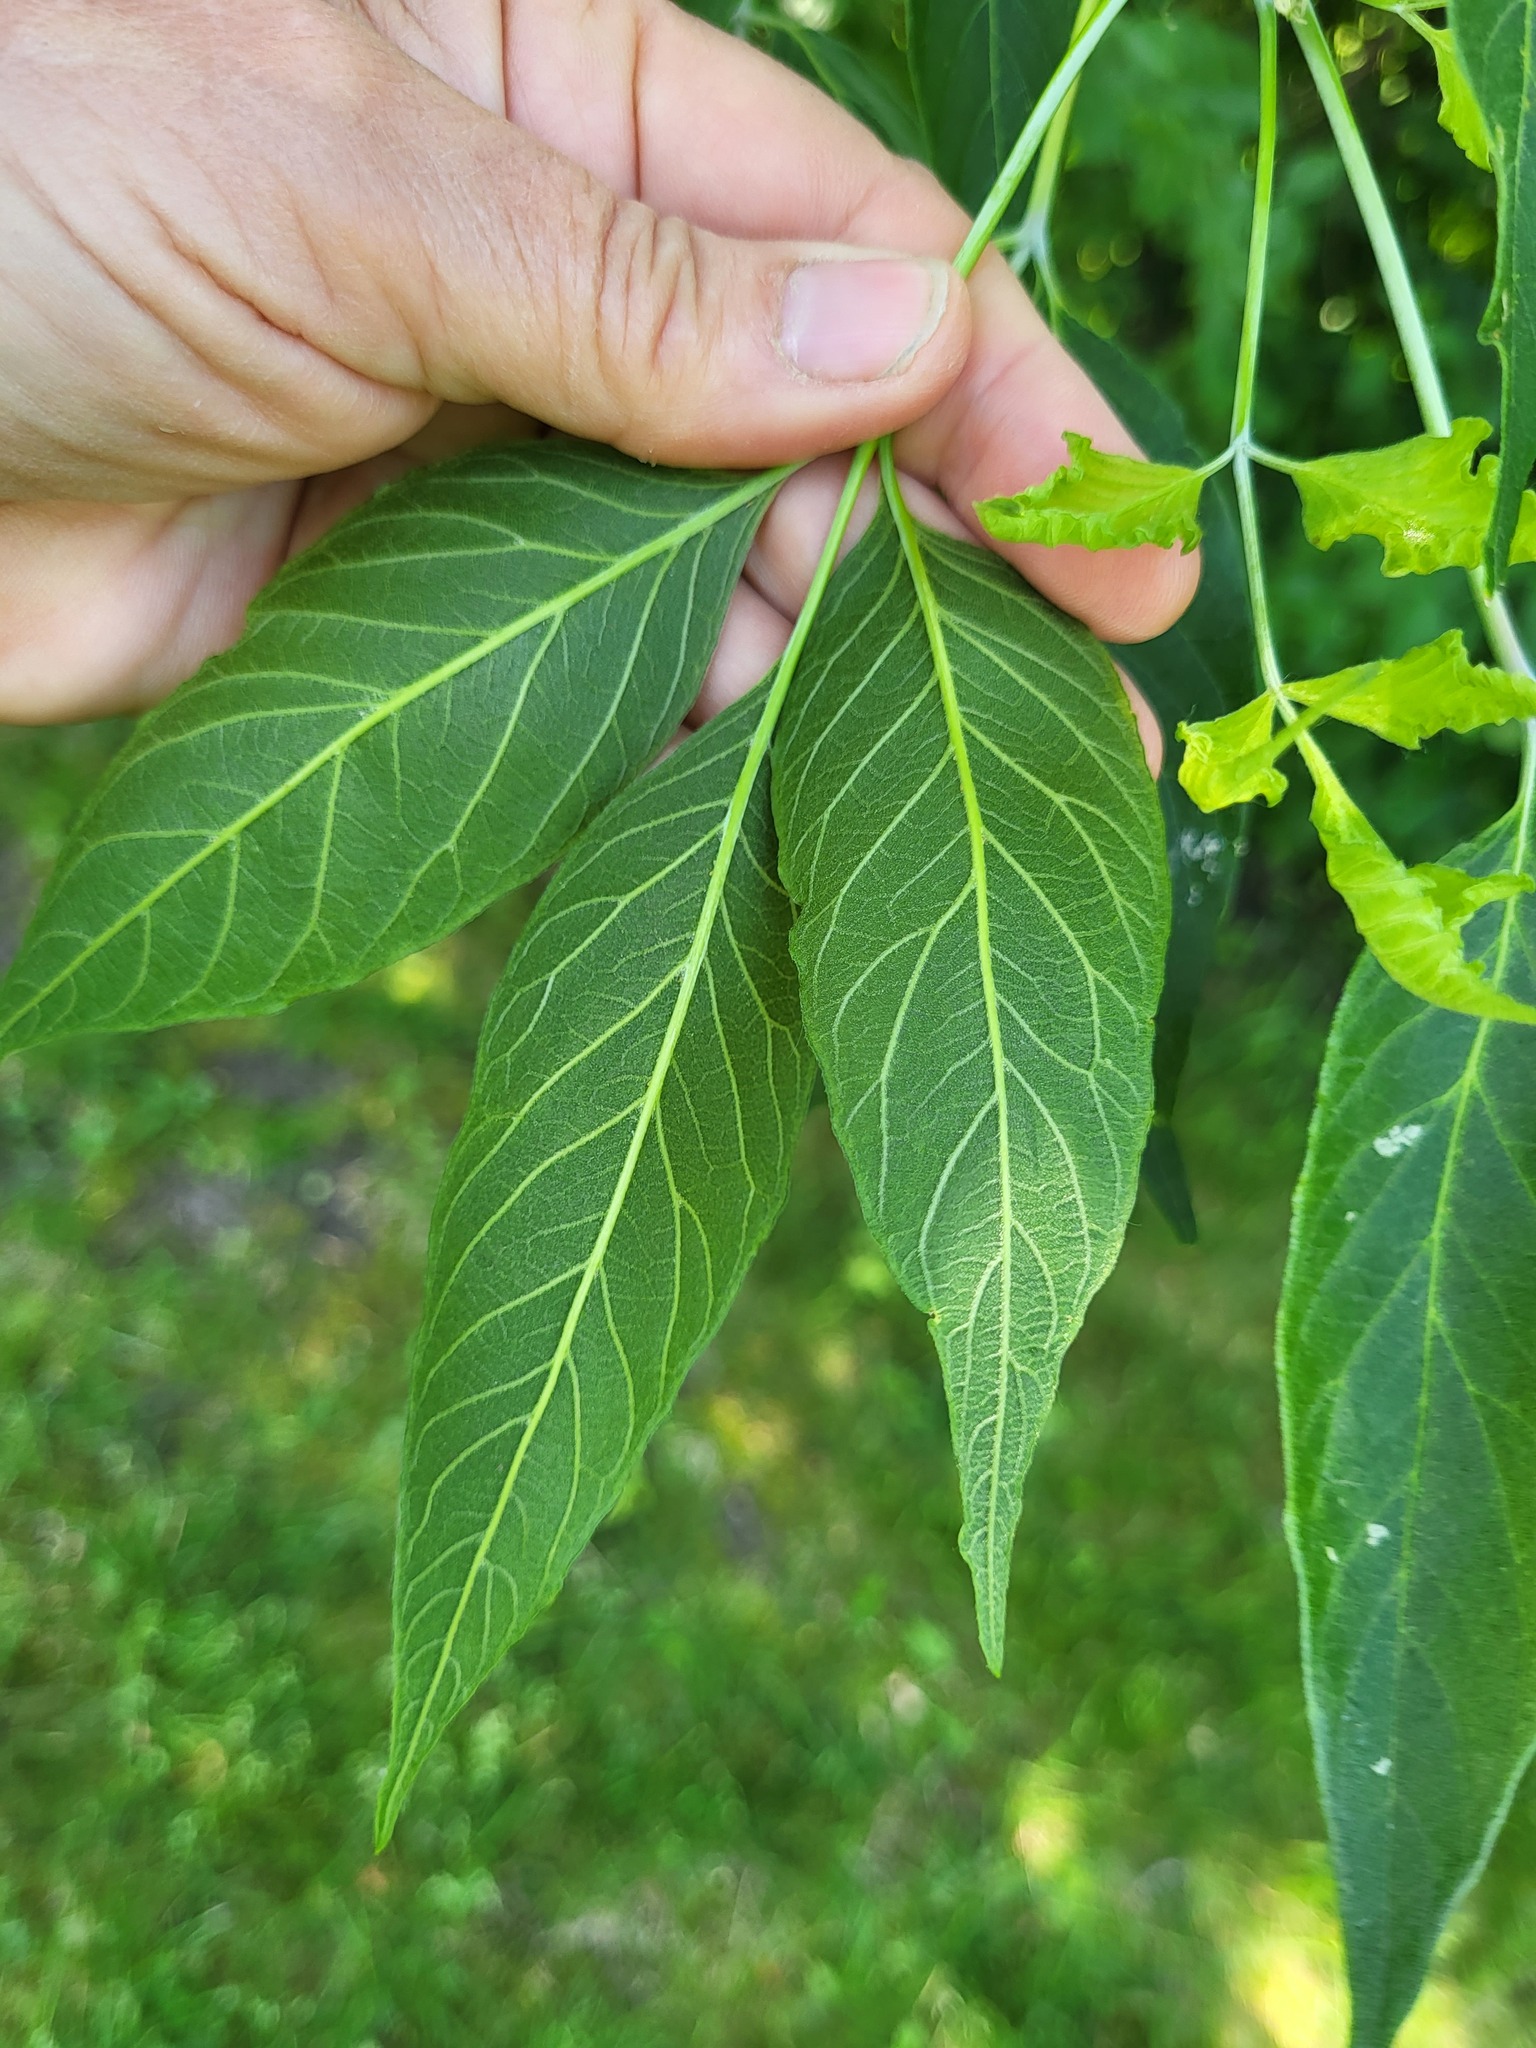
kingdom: Plantae
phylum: Tracheophyta
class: Magnoliopsida
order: Sapindales
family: Sapindaceae
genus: Acer
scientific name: Acer negundo
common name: Ashleaf maple
